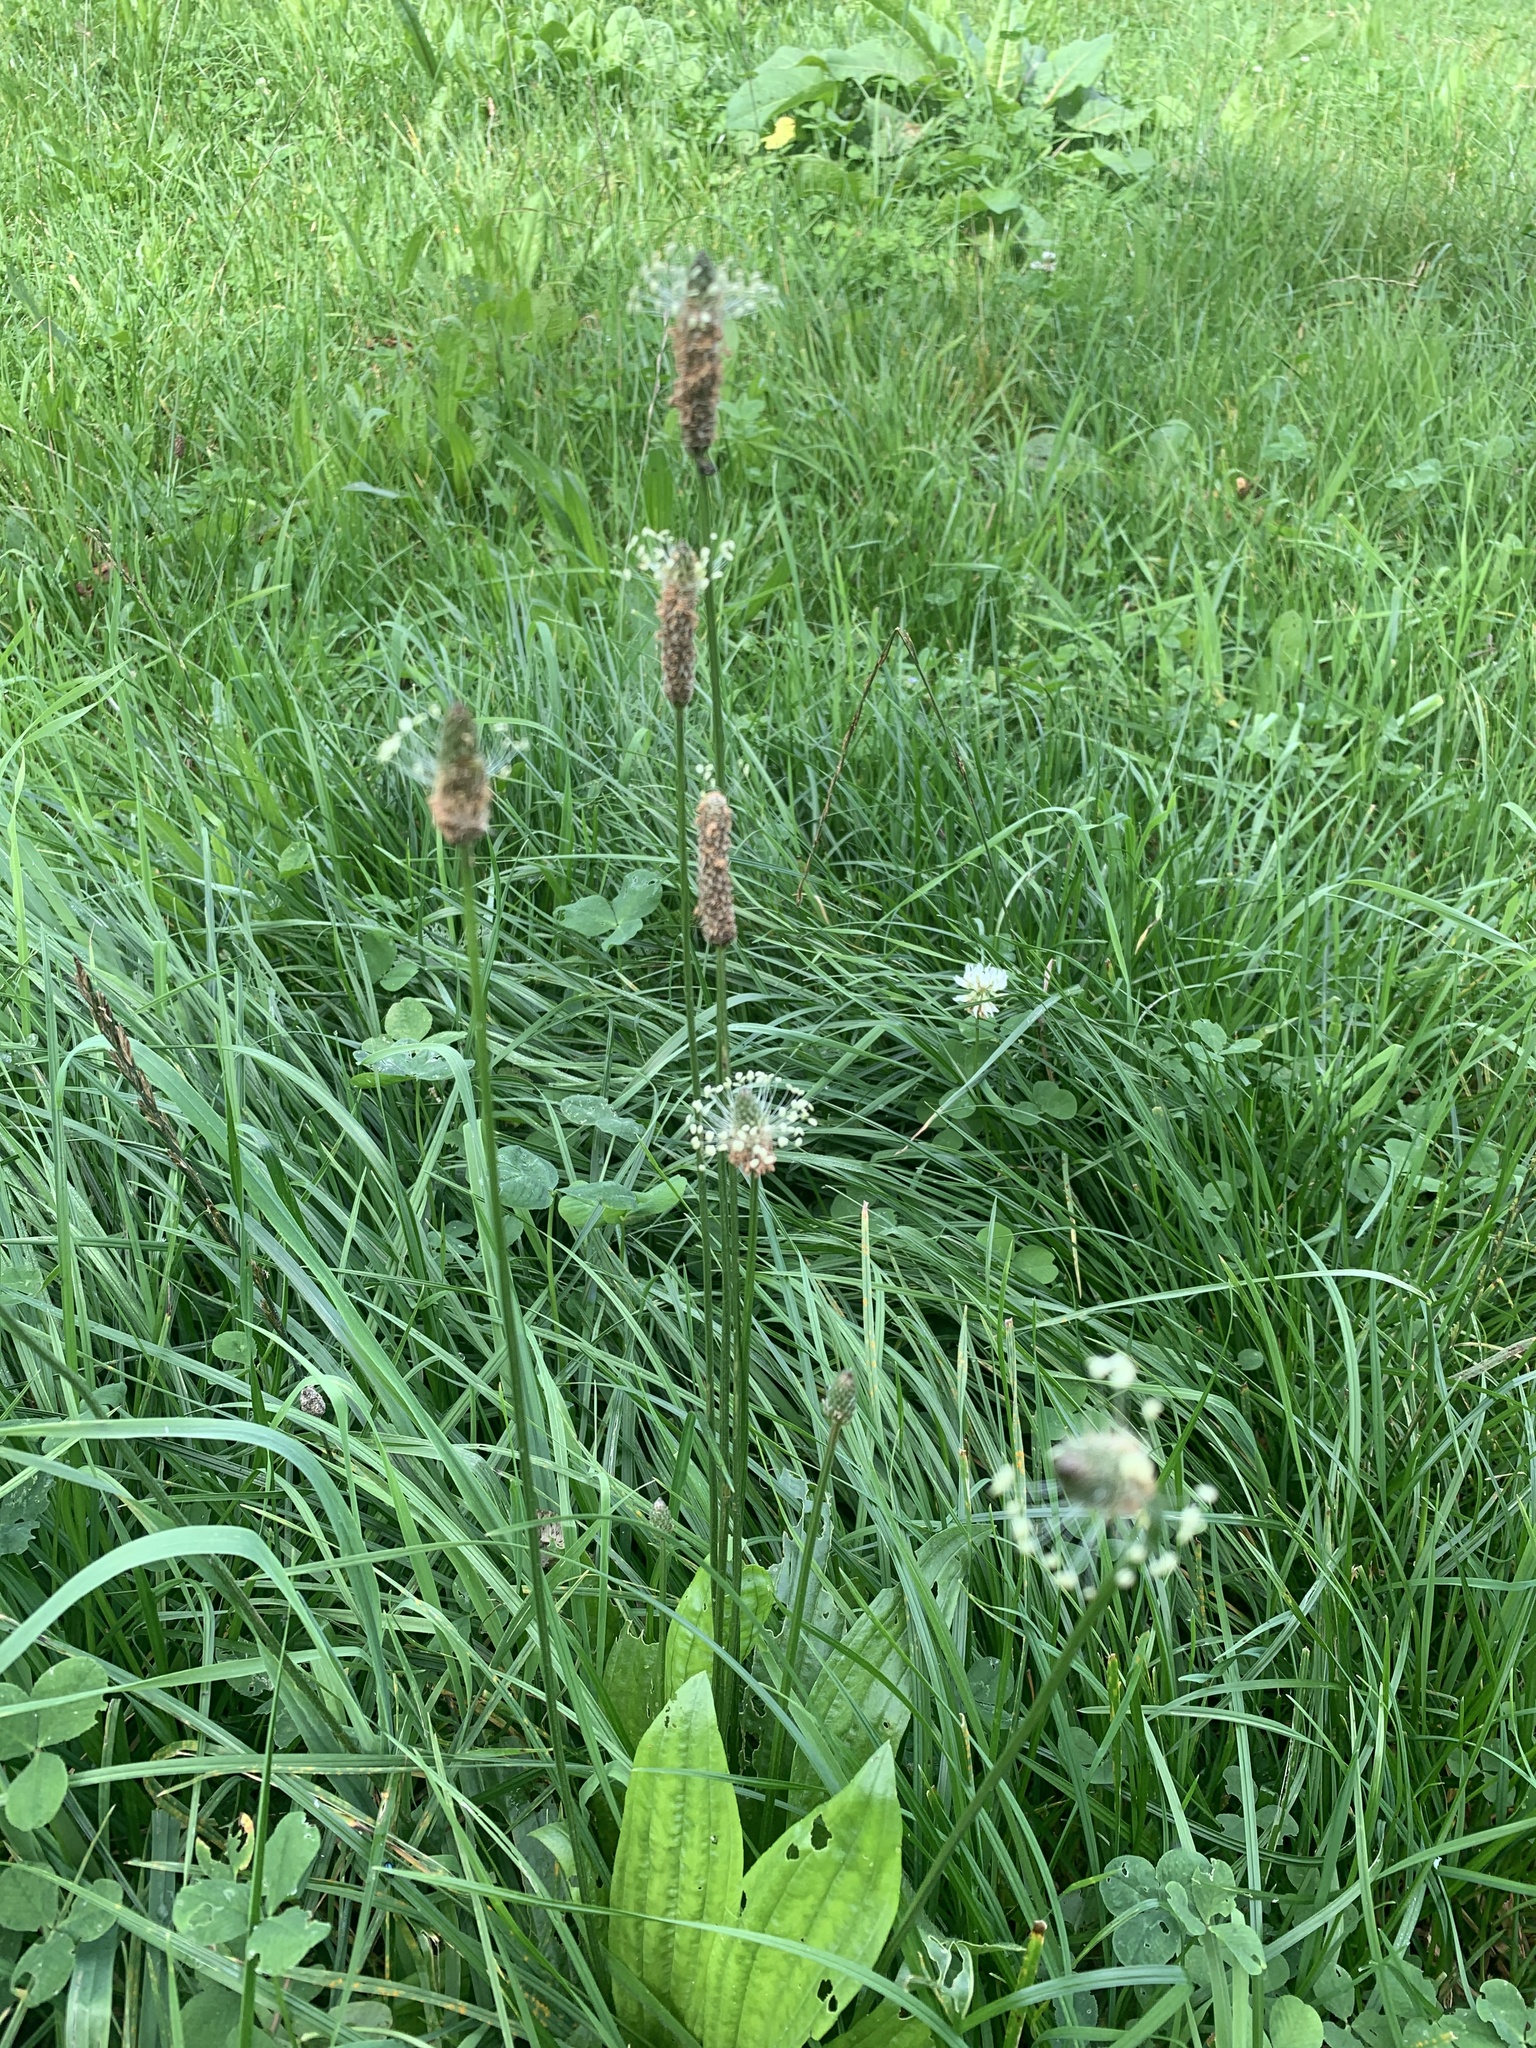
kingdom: Plantae
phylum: Tracheophyta
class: Magnoliopsida
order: Lamiales
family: Plantaginaceae
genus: Plantago
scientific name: Plantago lanceolata
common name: Ribwort plantain
